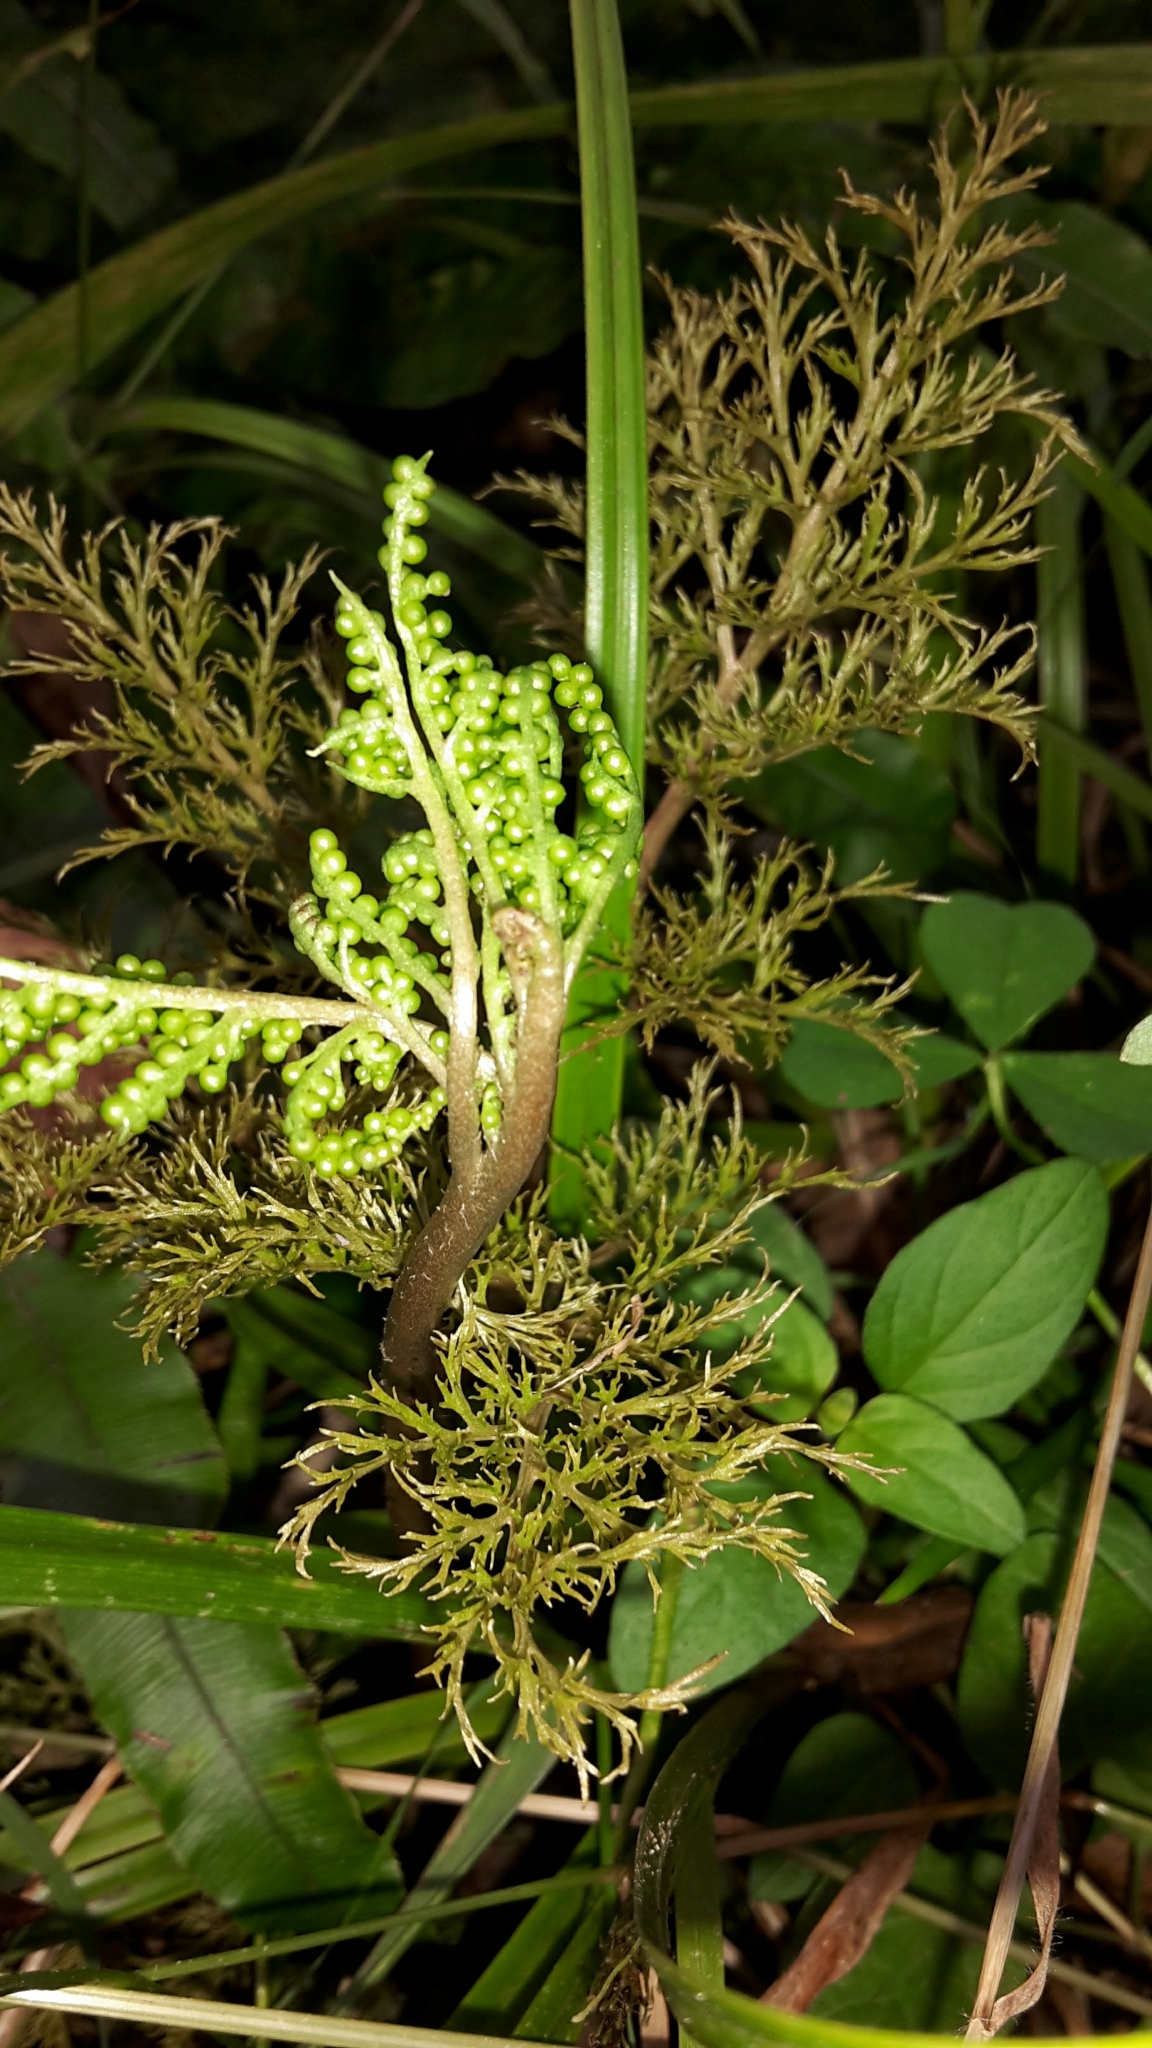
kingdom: Plantae
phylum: Tracheophyta
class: Polypodiopsida
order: Ophioglossales
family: Ophioglossaceae
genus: Sceptridium
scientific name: Sceptridium biforme
